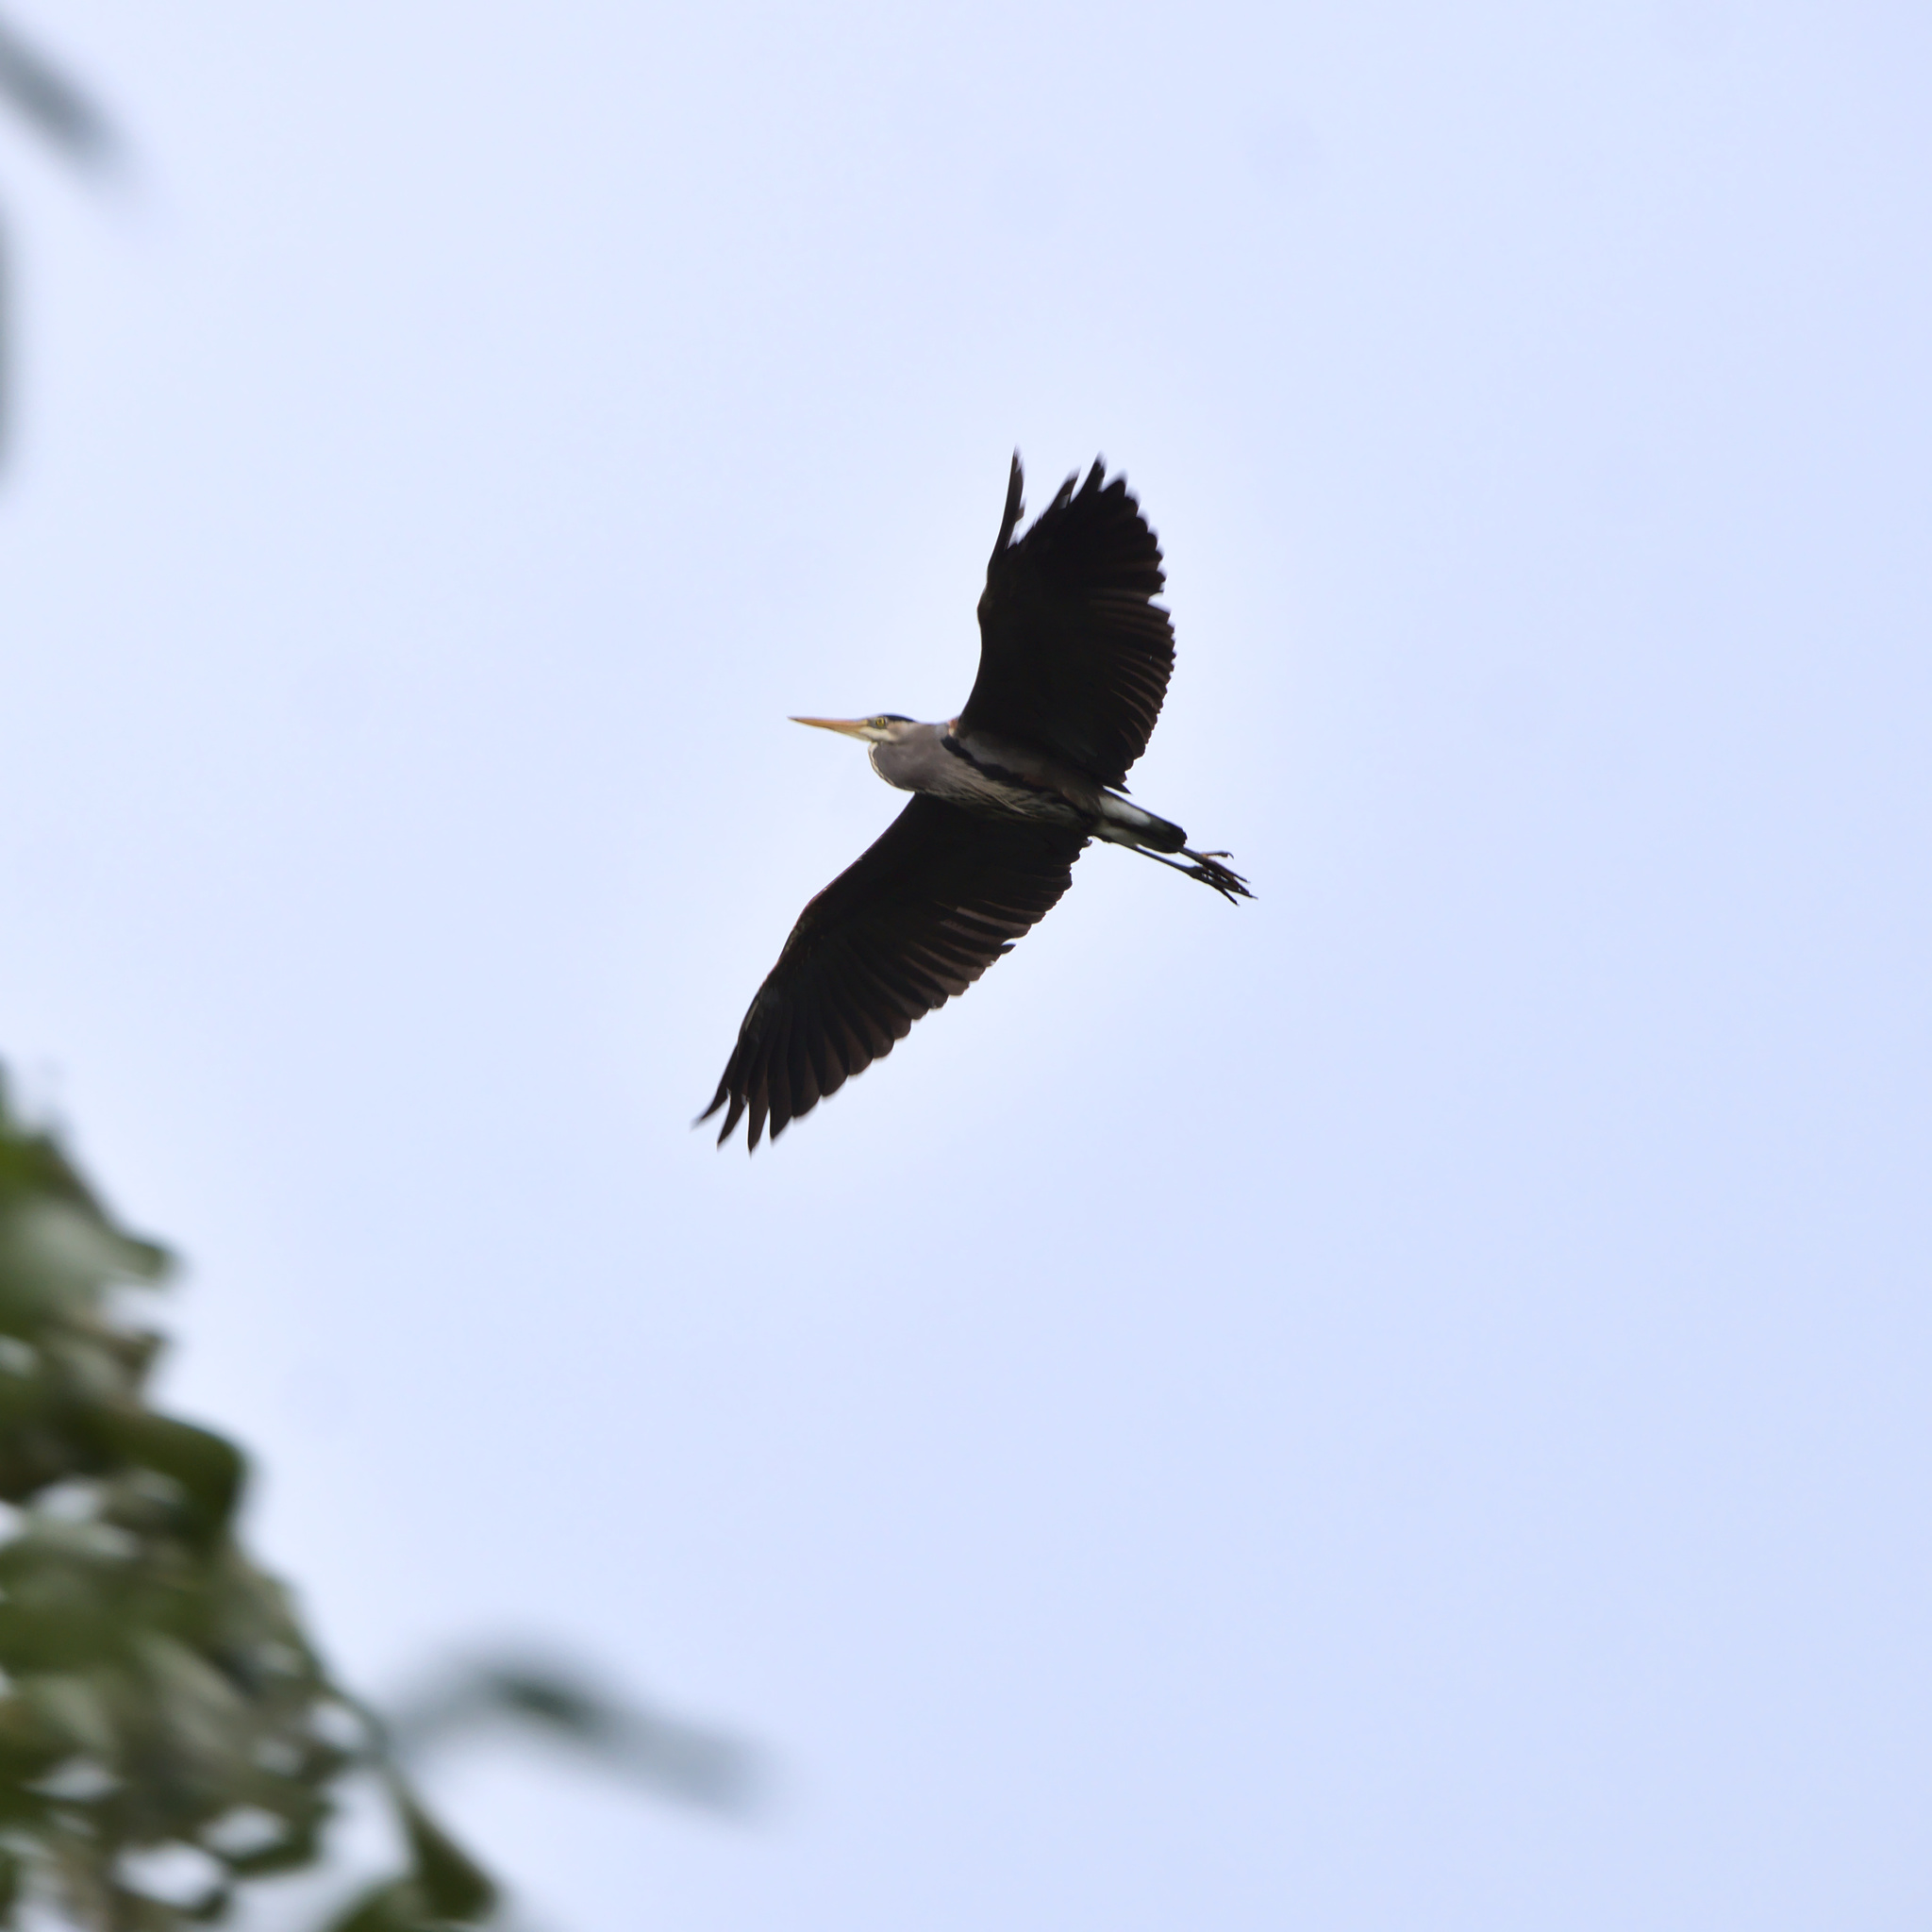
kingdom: Animalia
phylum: Chordata
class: Aves
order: Pelecaniformes
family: Ardeidae
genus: Ardea
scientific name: Ardea herodias
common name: Great blue heron
